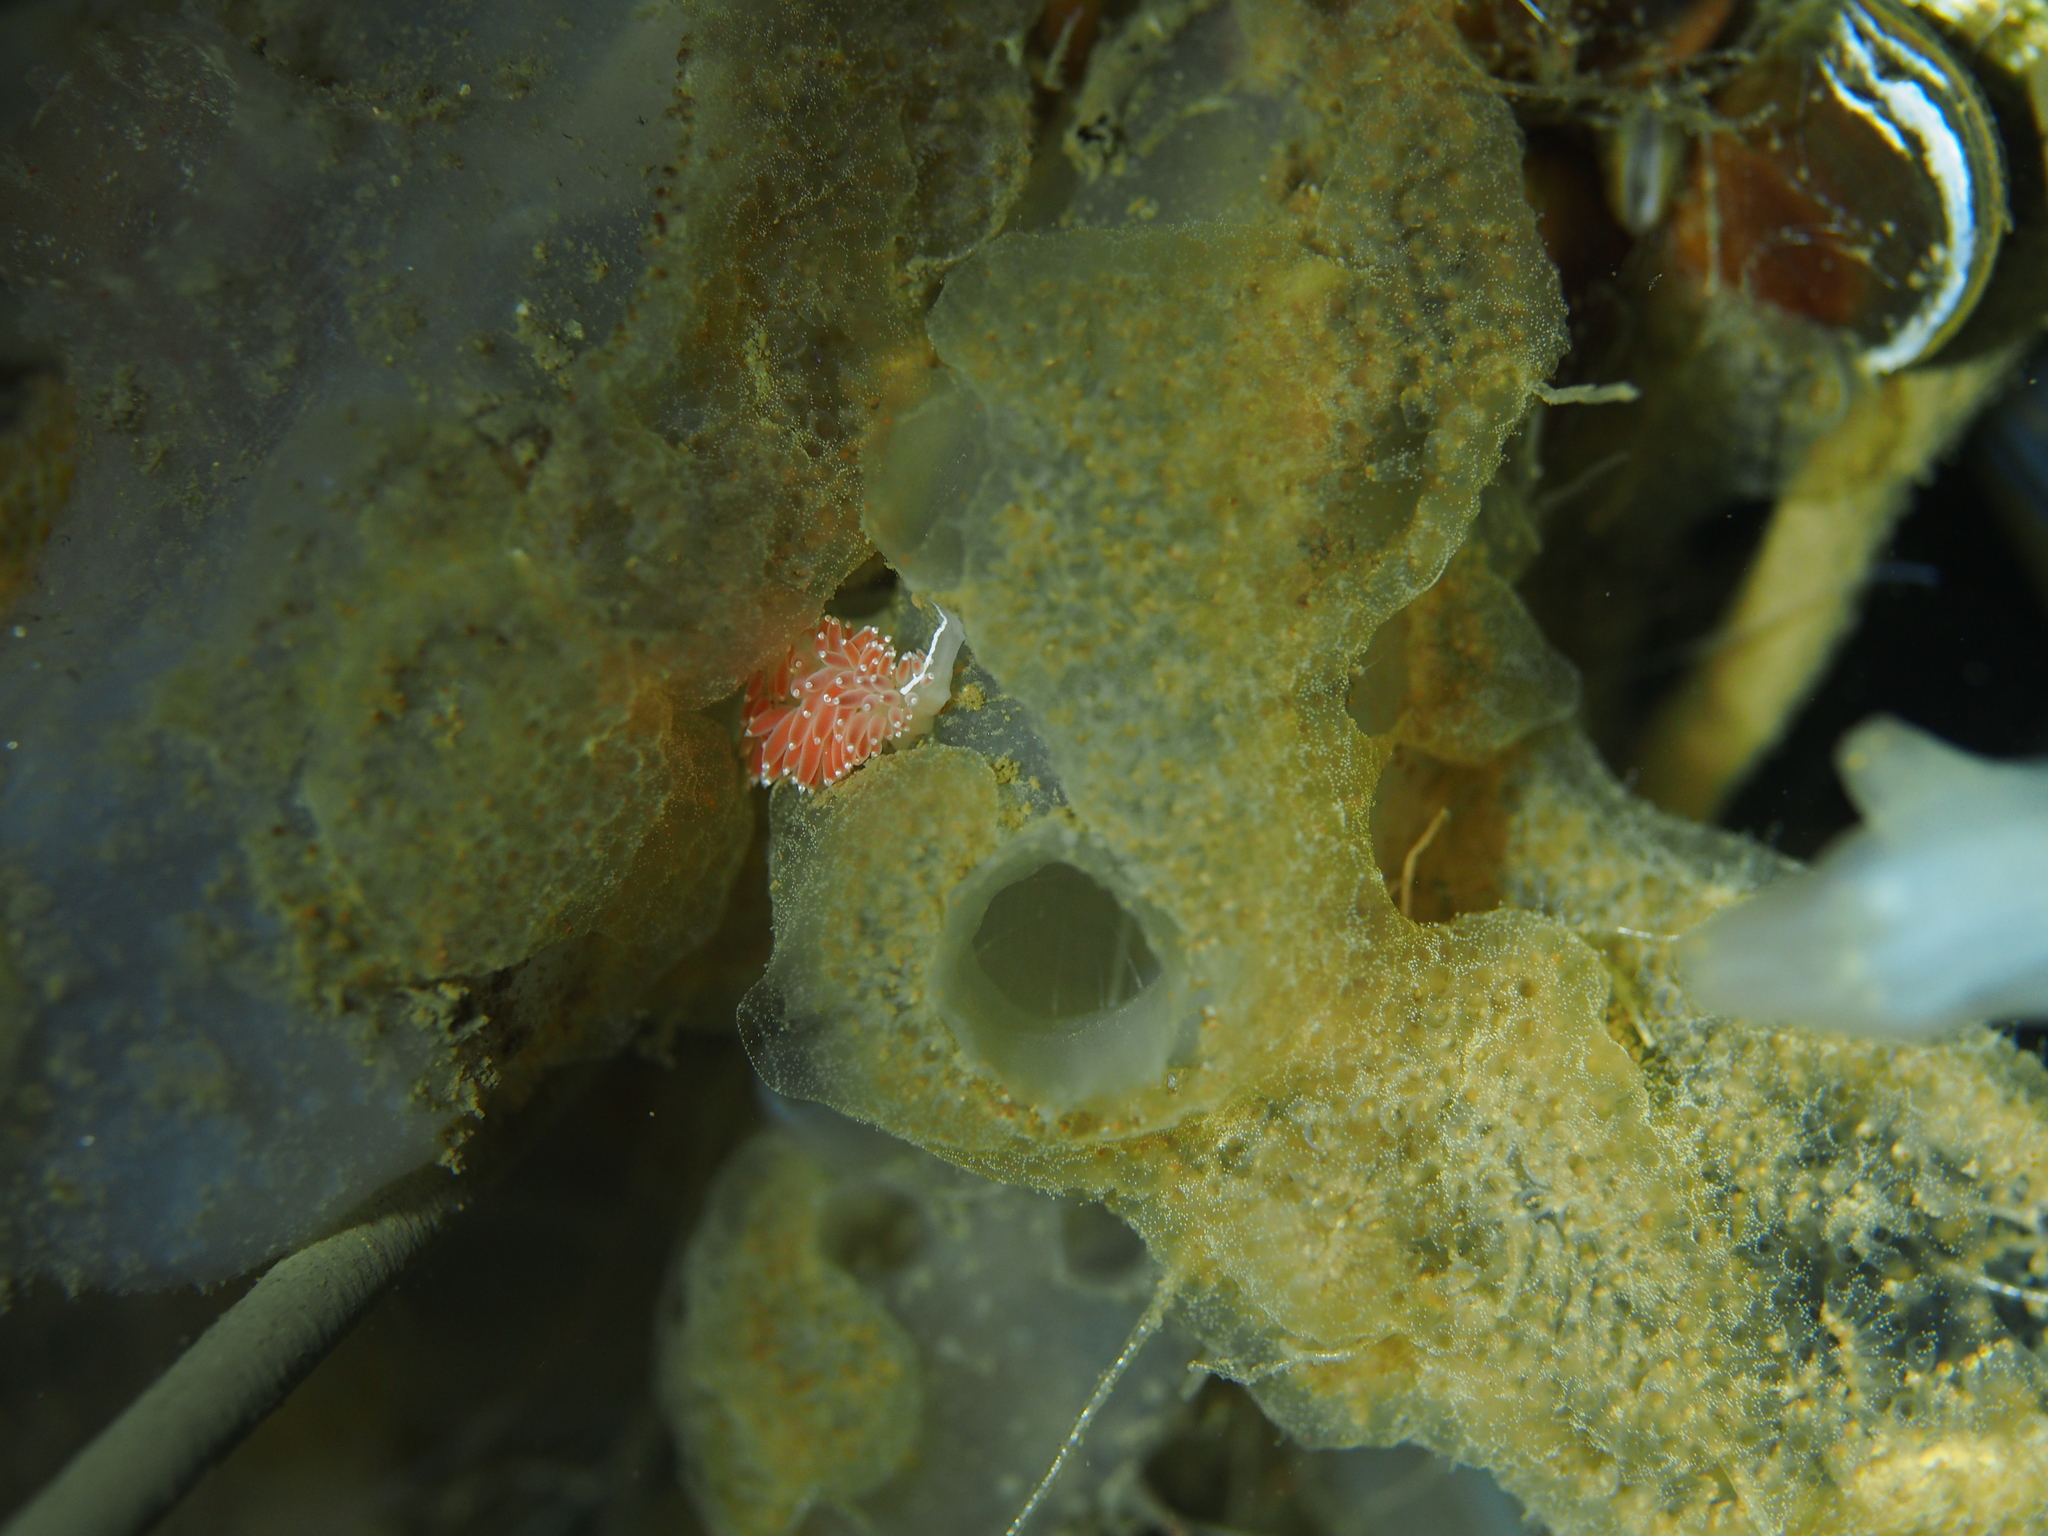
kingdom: Animalia
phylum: Mollusca
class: Gastropoda
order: Nudibranchia
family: Coryphellidae
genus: Coryphella
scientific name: Coryphella verrucosa
